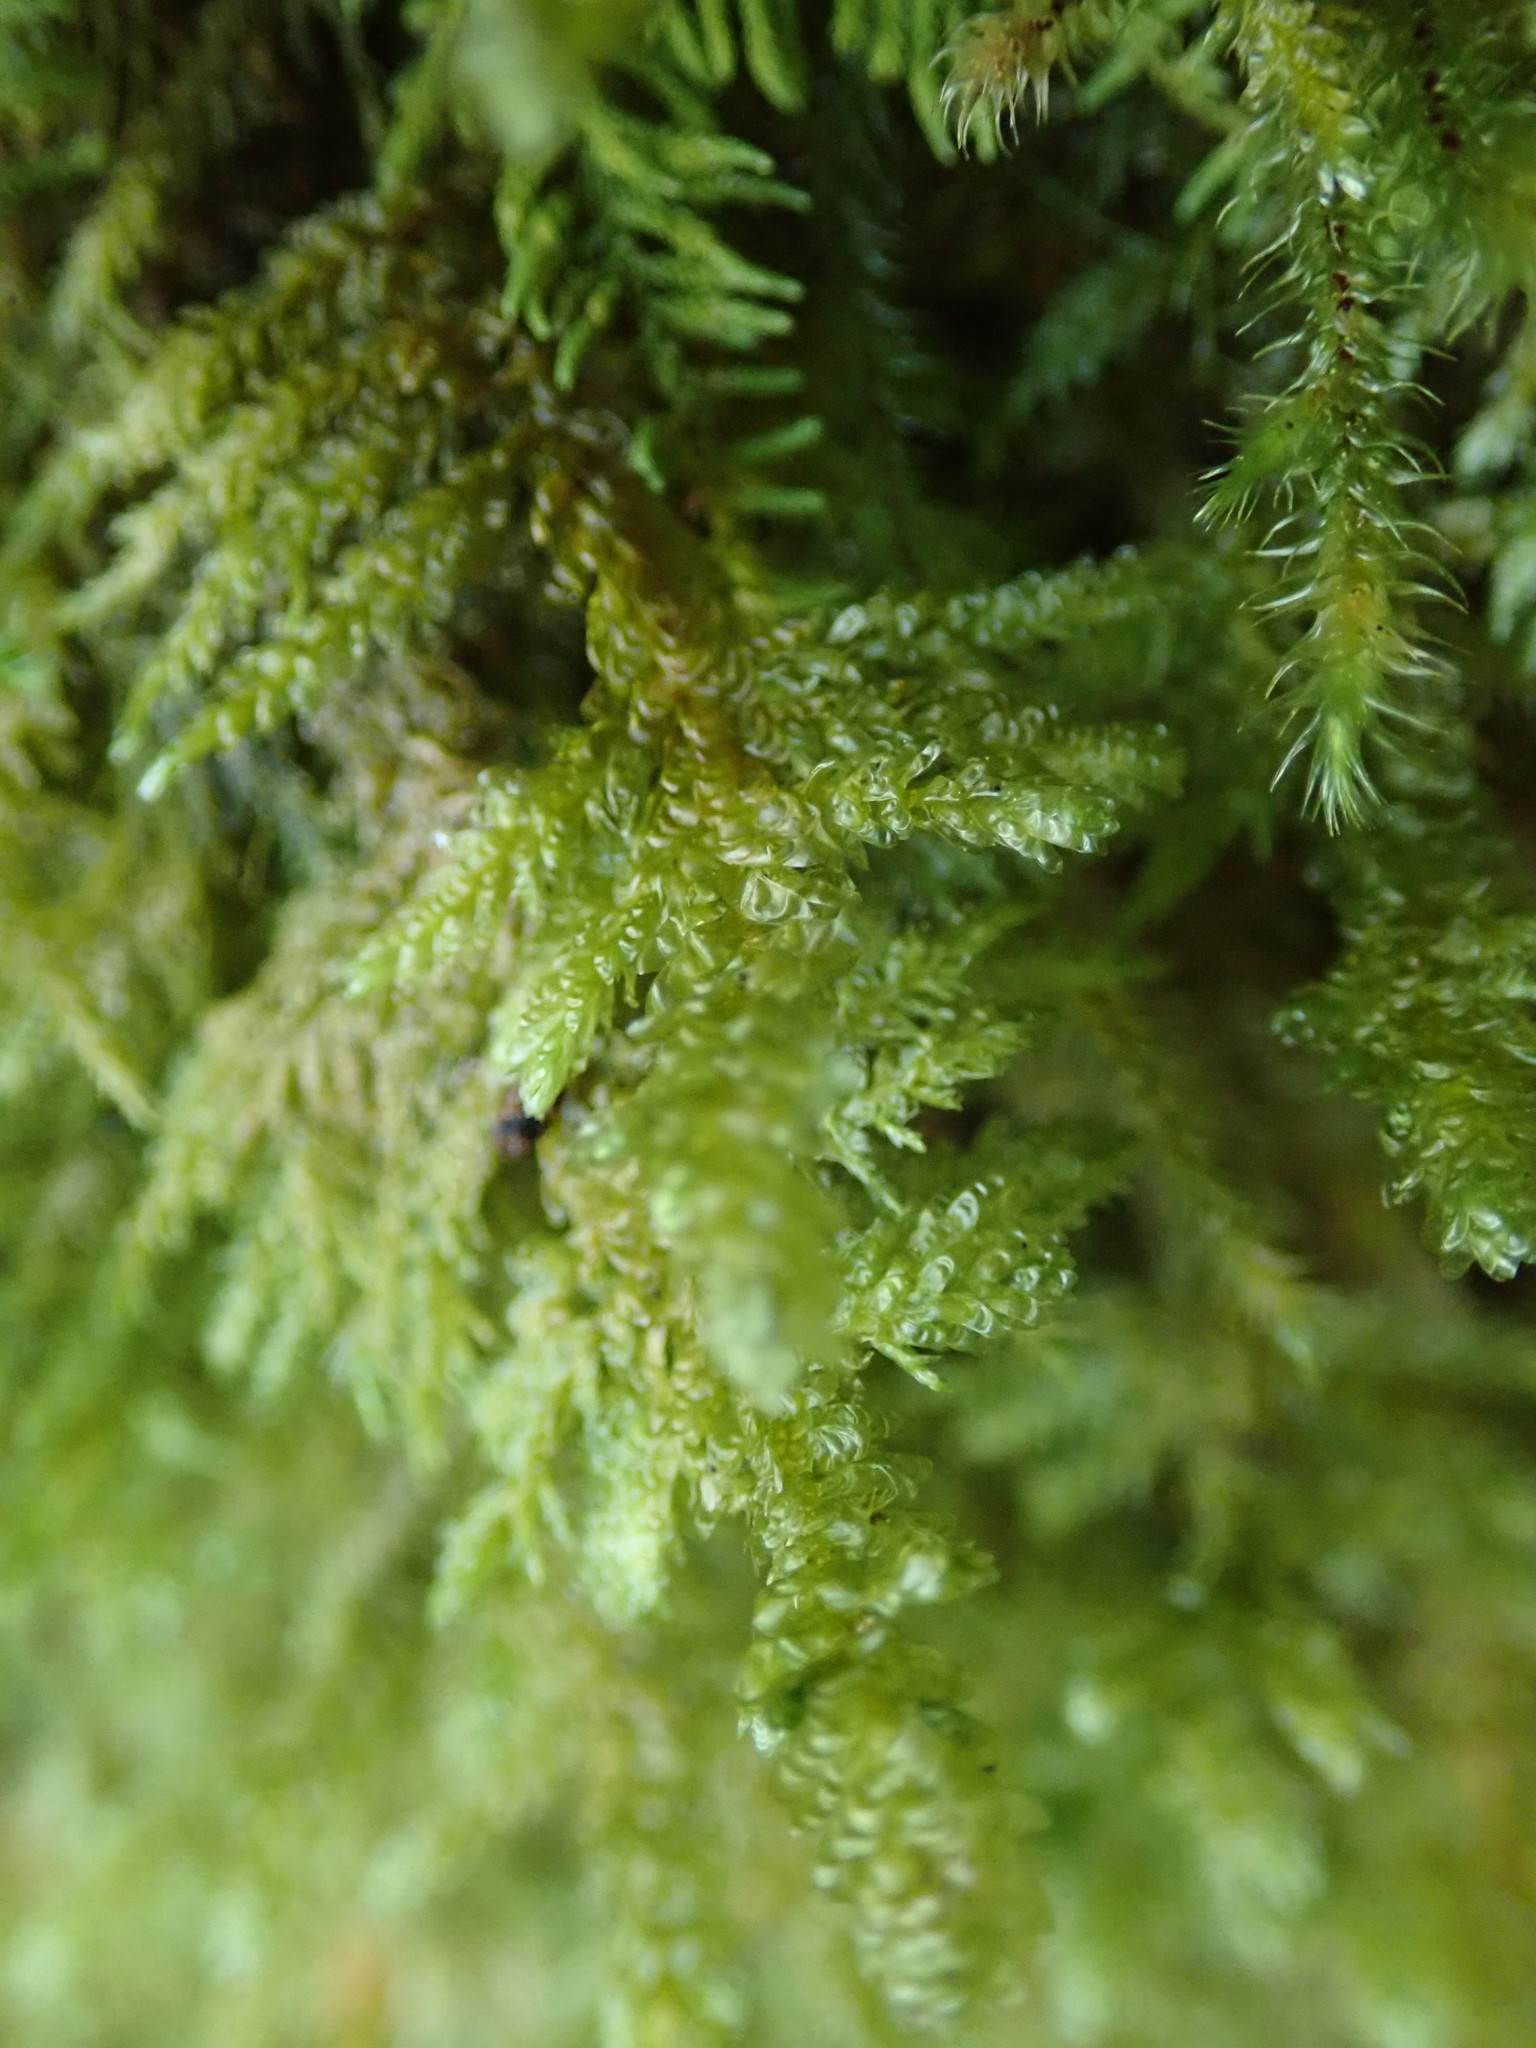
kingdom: Plantae
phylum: Bryophyta
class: Bryopsida
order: Hypnales
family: Neckeraceae
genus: Metaneckera
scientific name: Metaneckera menziesii
